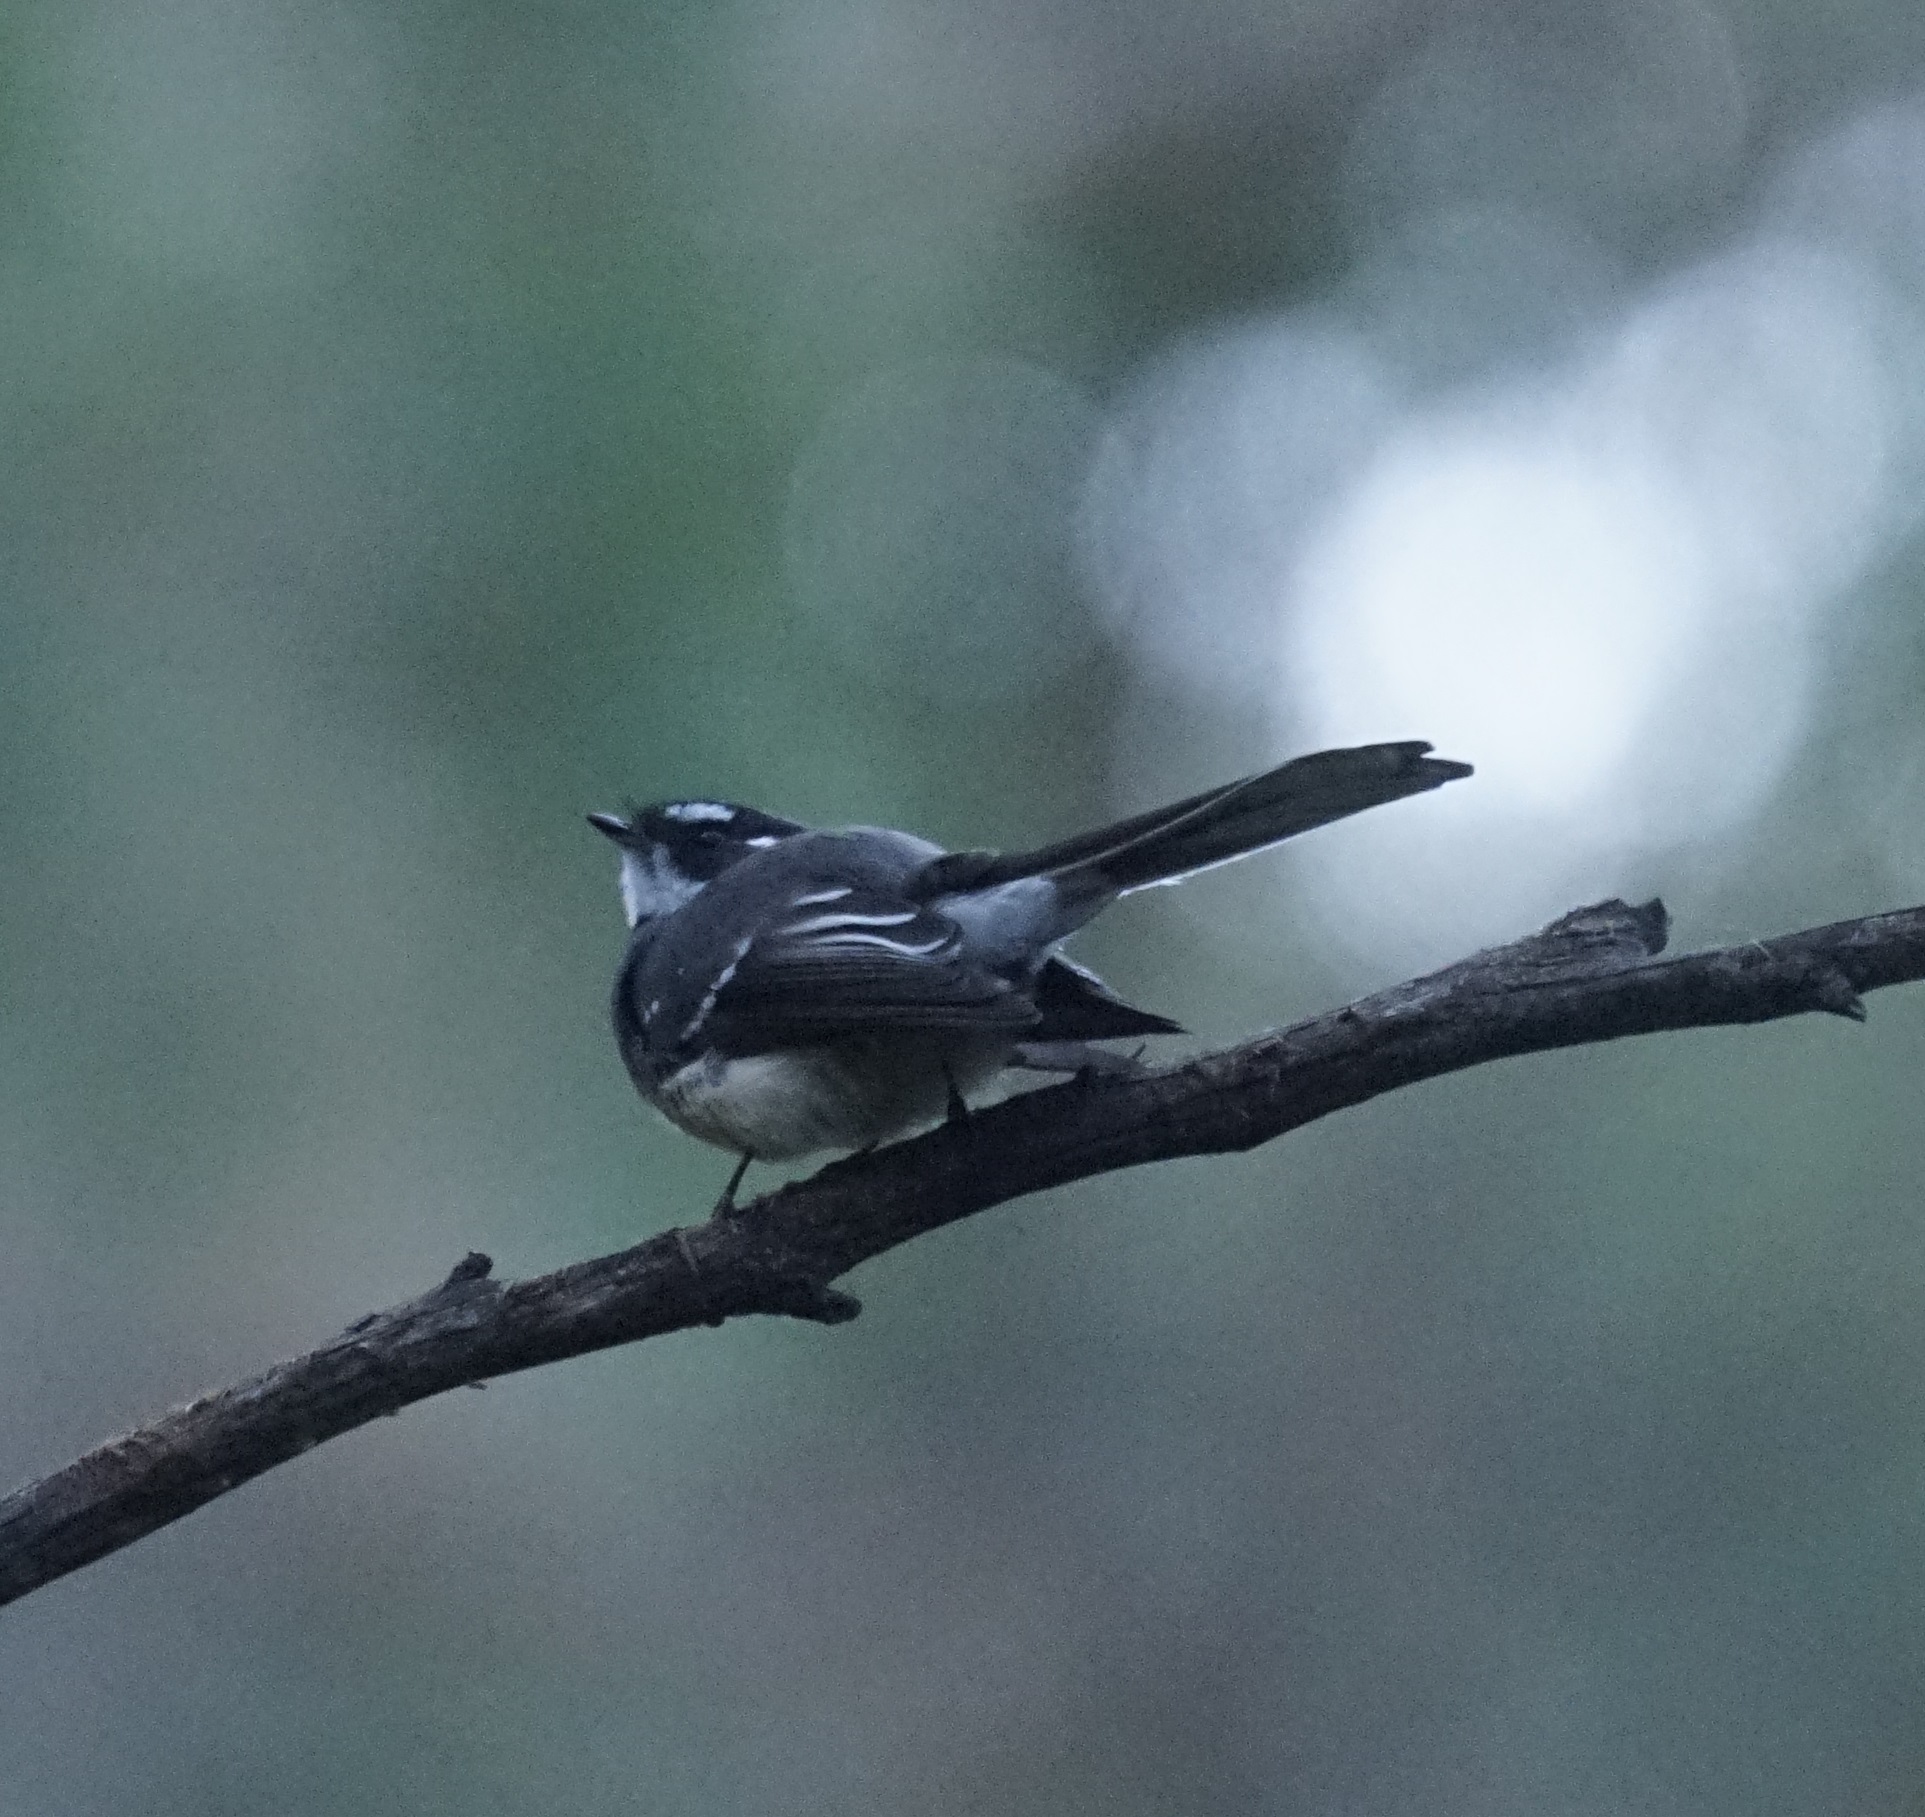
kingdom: Animalia
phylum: Chordata
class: Aves
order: Passeriformes
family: Rhipiduridae
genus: Rhipidura
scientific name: Rhipidura albiscapa
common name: Grey fantail
